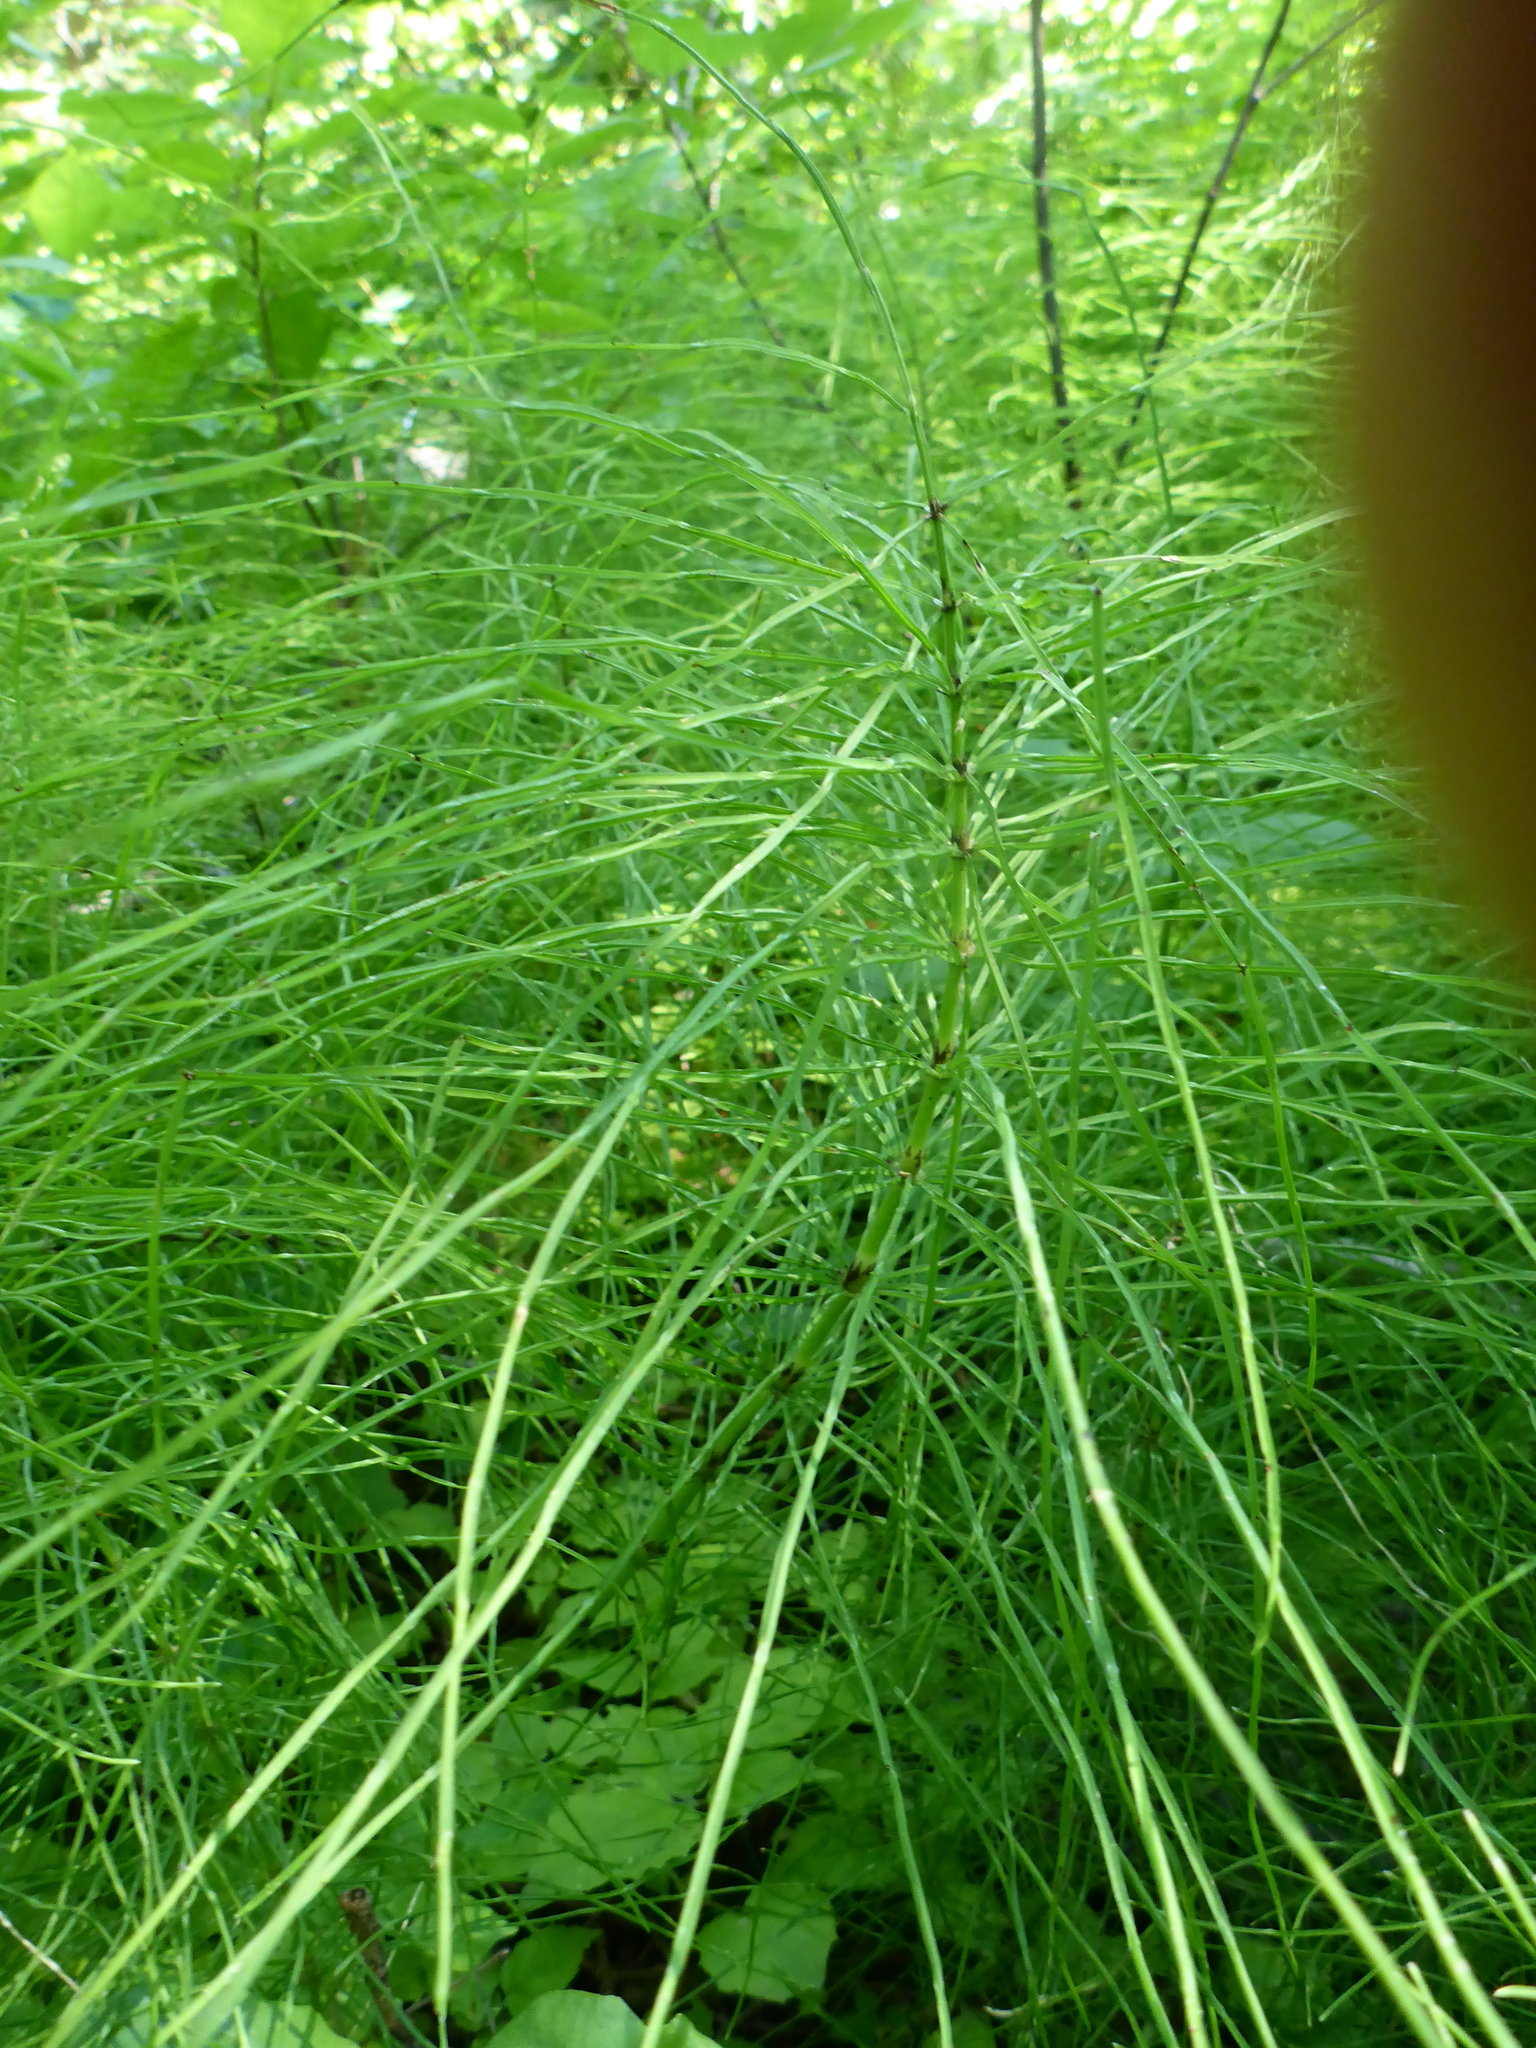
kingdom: Plantae
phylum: Tracheophyta
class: Polypodiopsida
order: Equisetales
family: Equisetaceae
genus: Equisetum
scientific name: Equisetum arvense
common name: Field horsetail
